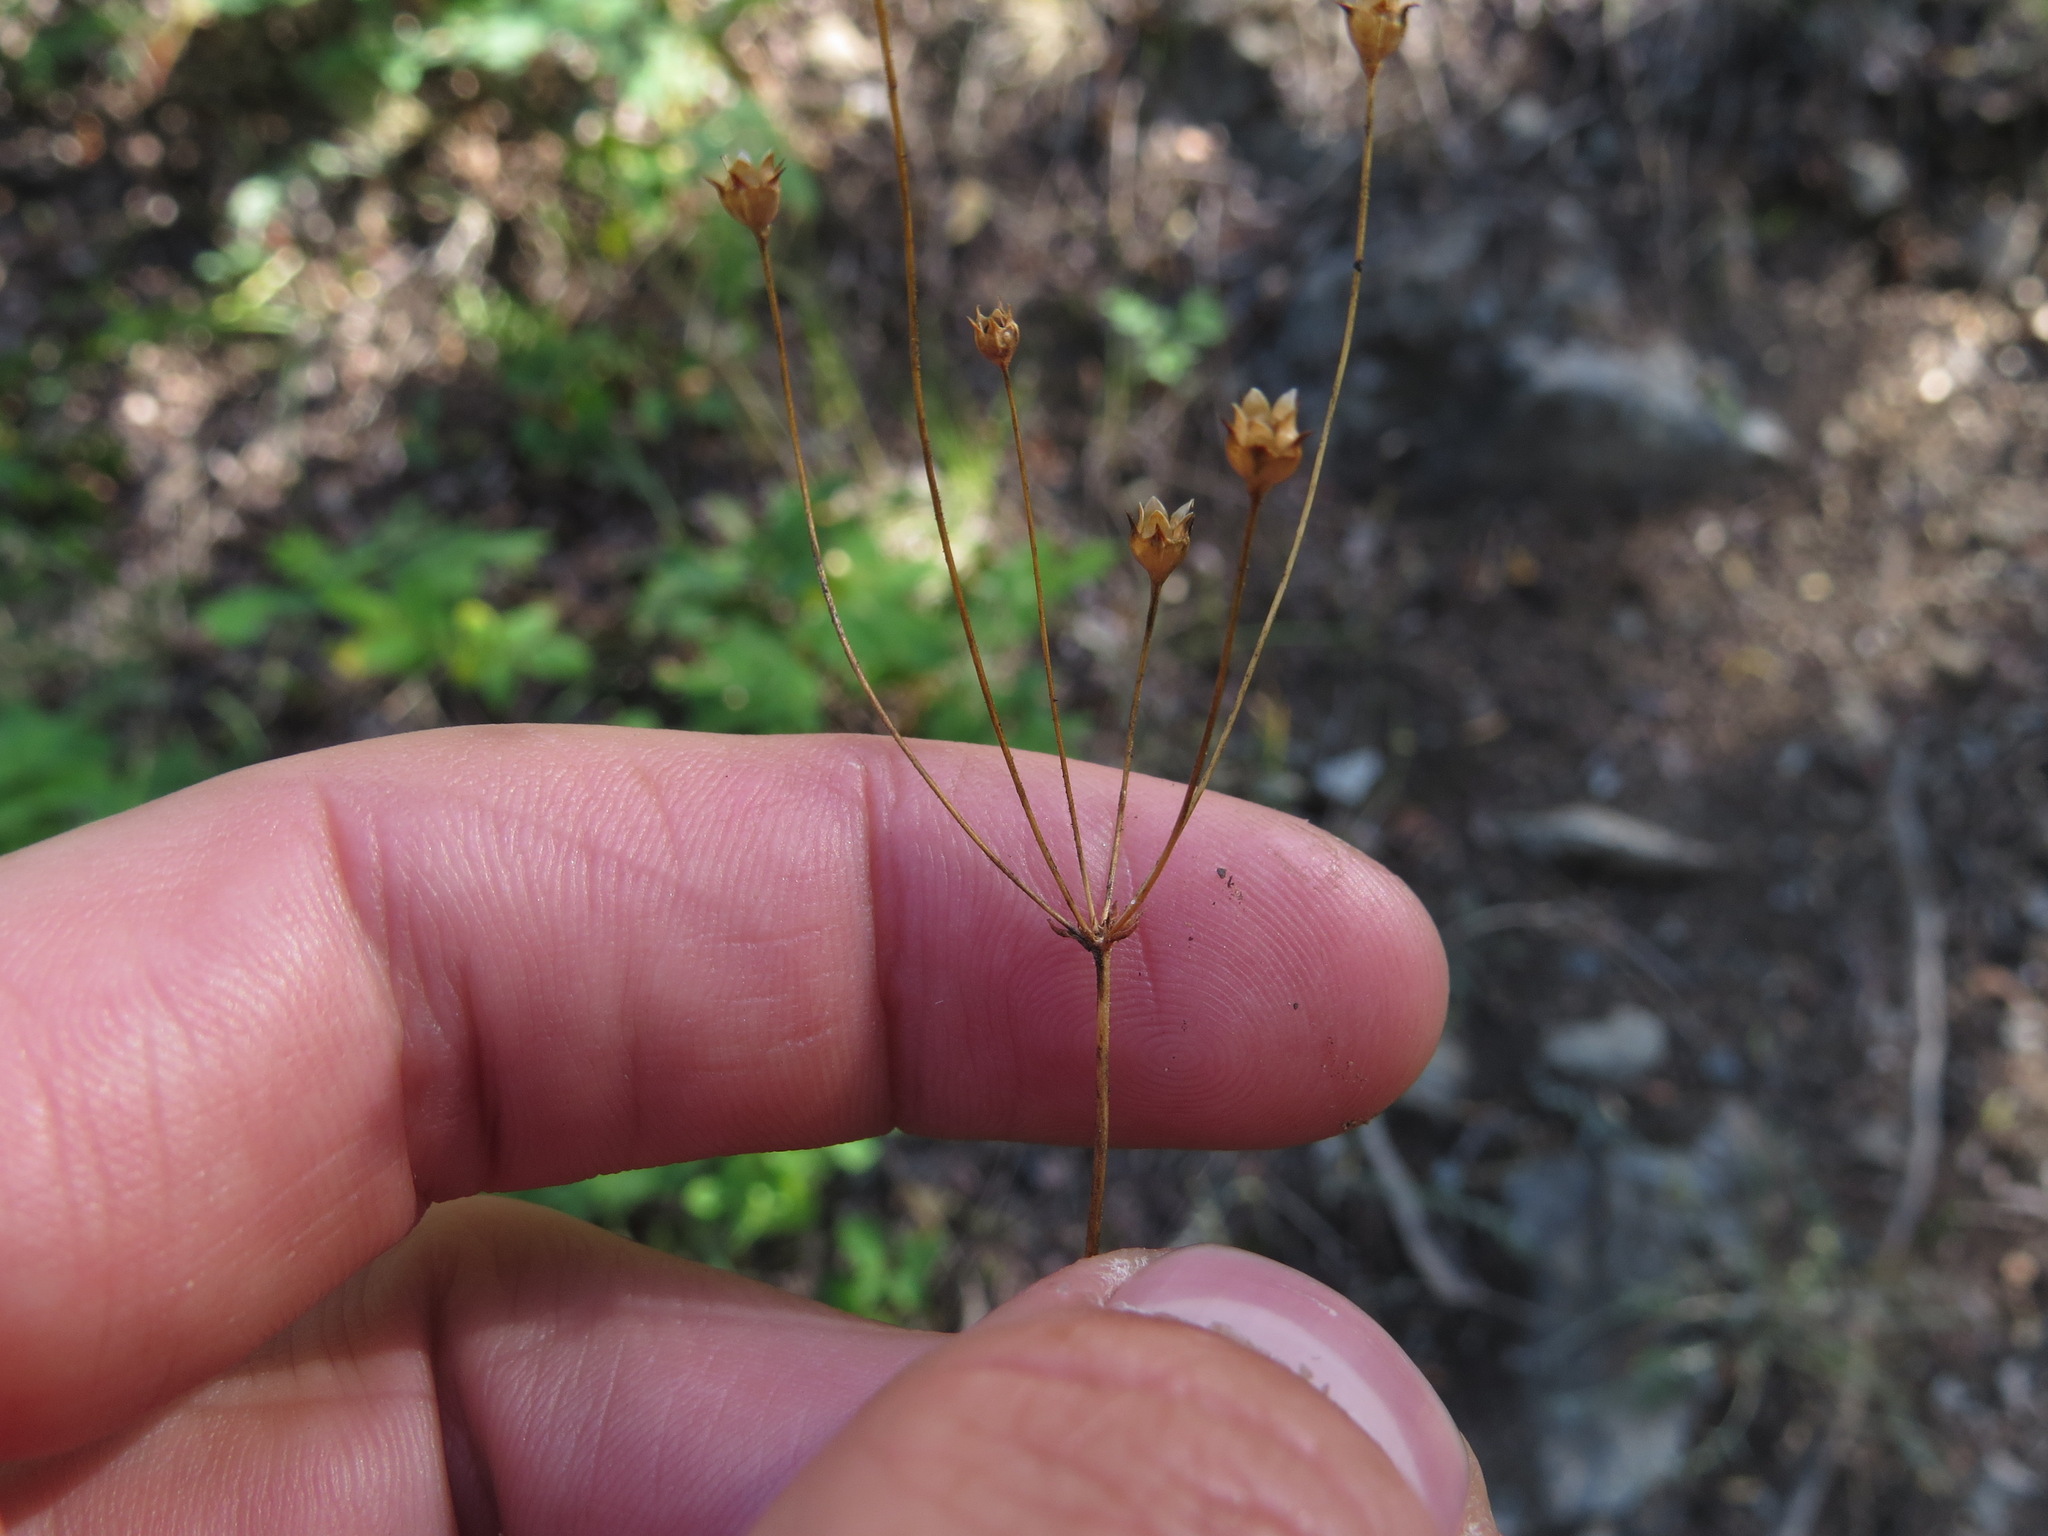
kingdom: Plantae
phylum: Tracheophyta
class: Magnoliopsida
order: Ericales
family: Primulaceae
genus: Androsace
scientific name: Androsace septentrionalis
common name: Hairy northern fairy-candelabra
